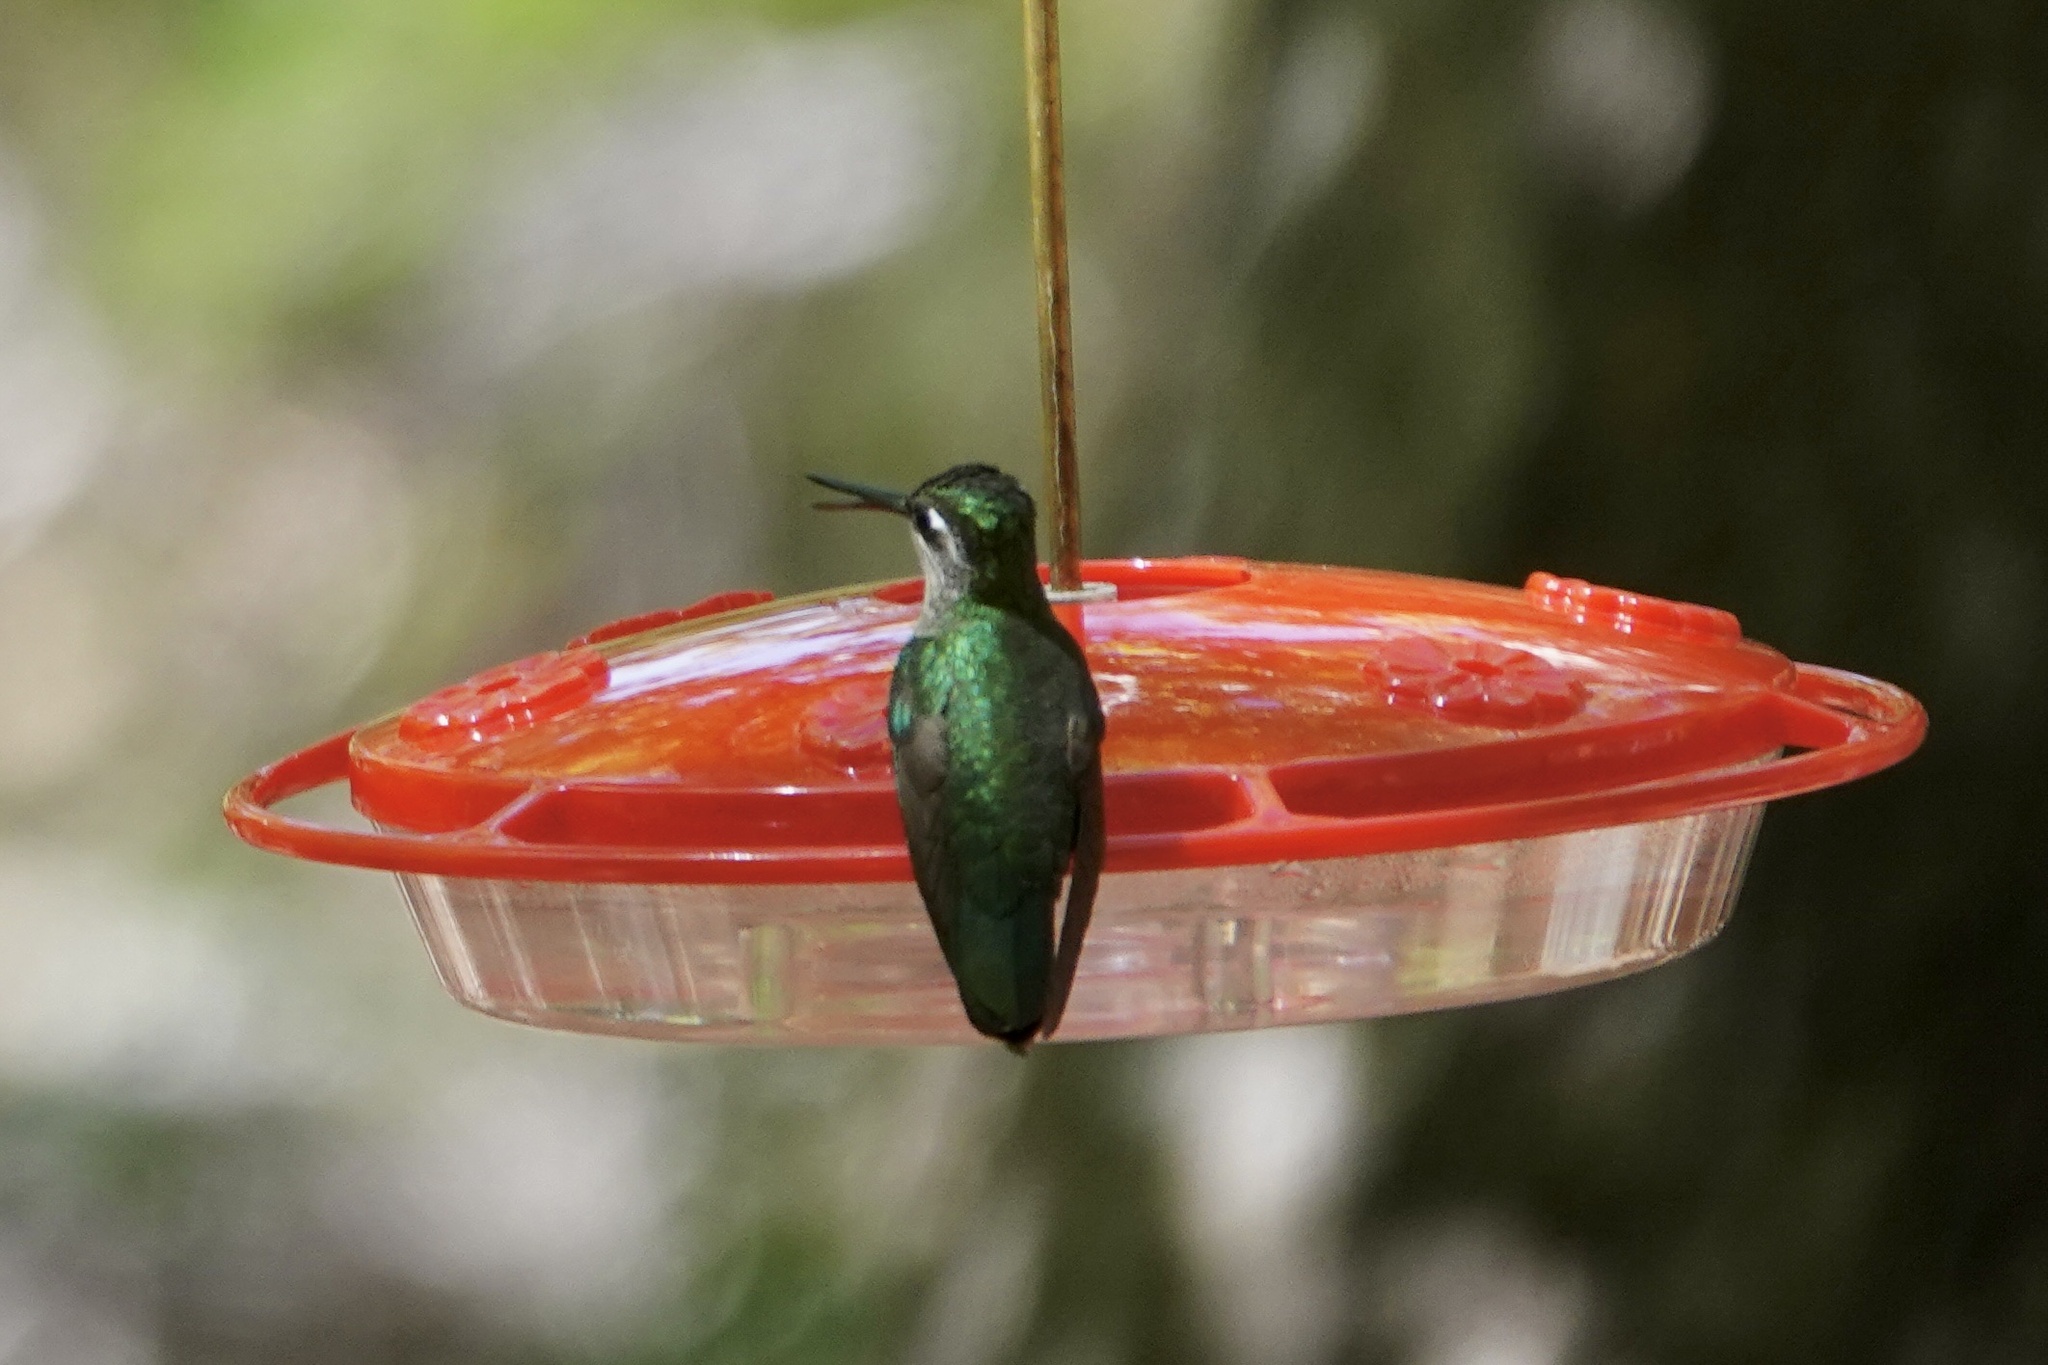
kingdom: Animalia
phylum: Chordata
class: Aves
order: Apodiformes
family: Trochilidae
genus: Eugenes
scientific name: Eugenes fulgens
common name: Magnificent hummingbird
